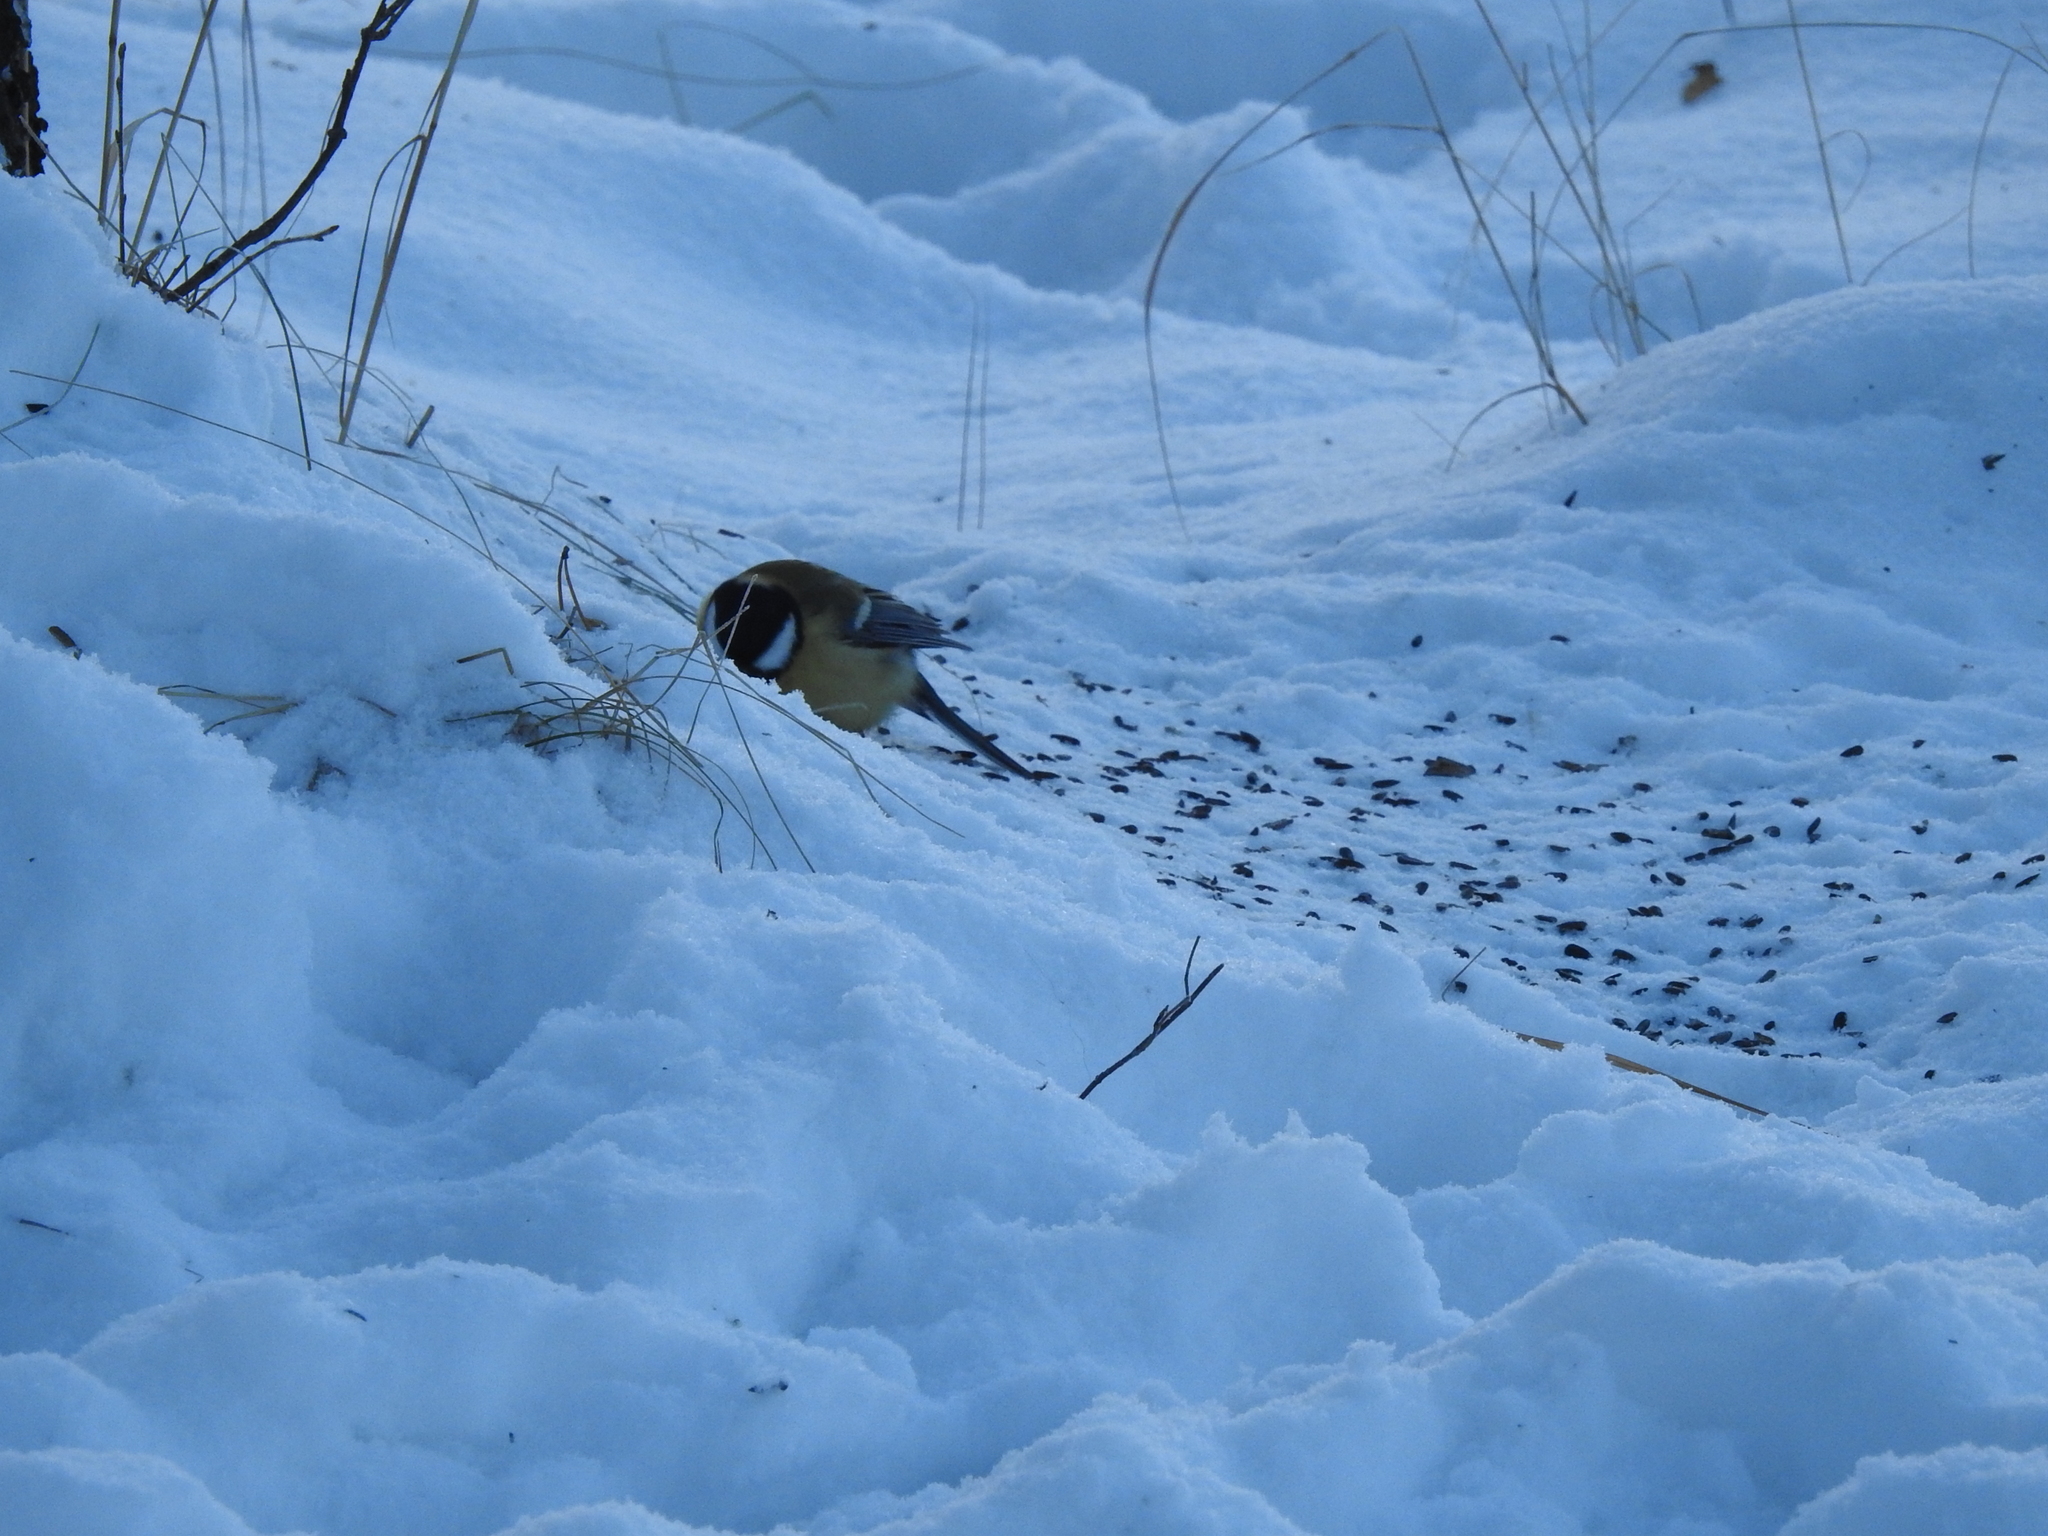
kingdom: Animalia
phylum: Chordata
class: Aves
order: Passeriformes
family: Paridae
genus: Parus
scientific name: Parus major
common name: Great tit
